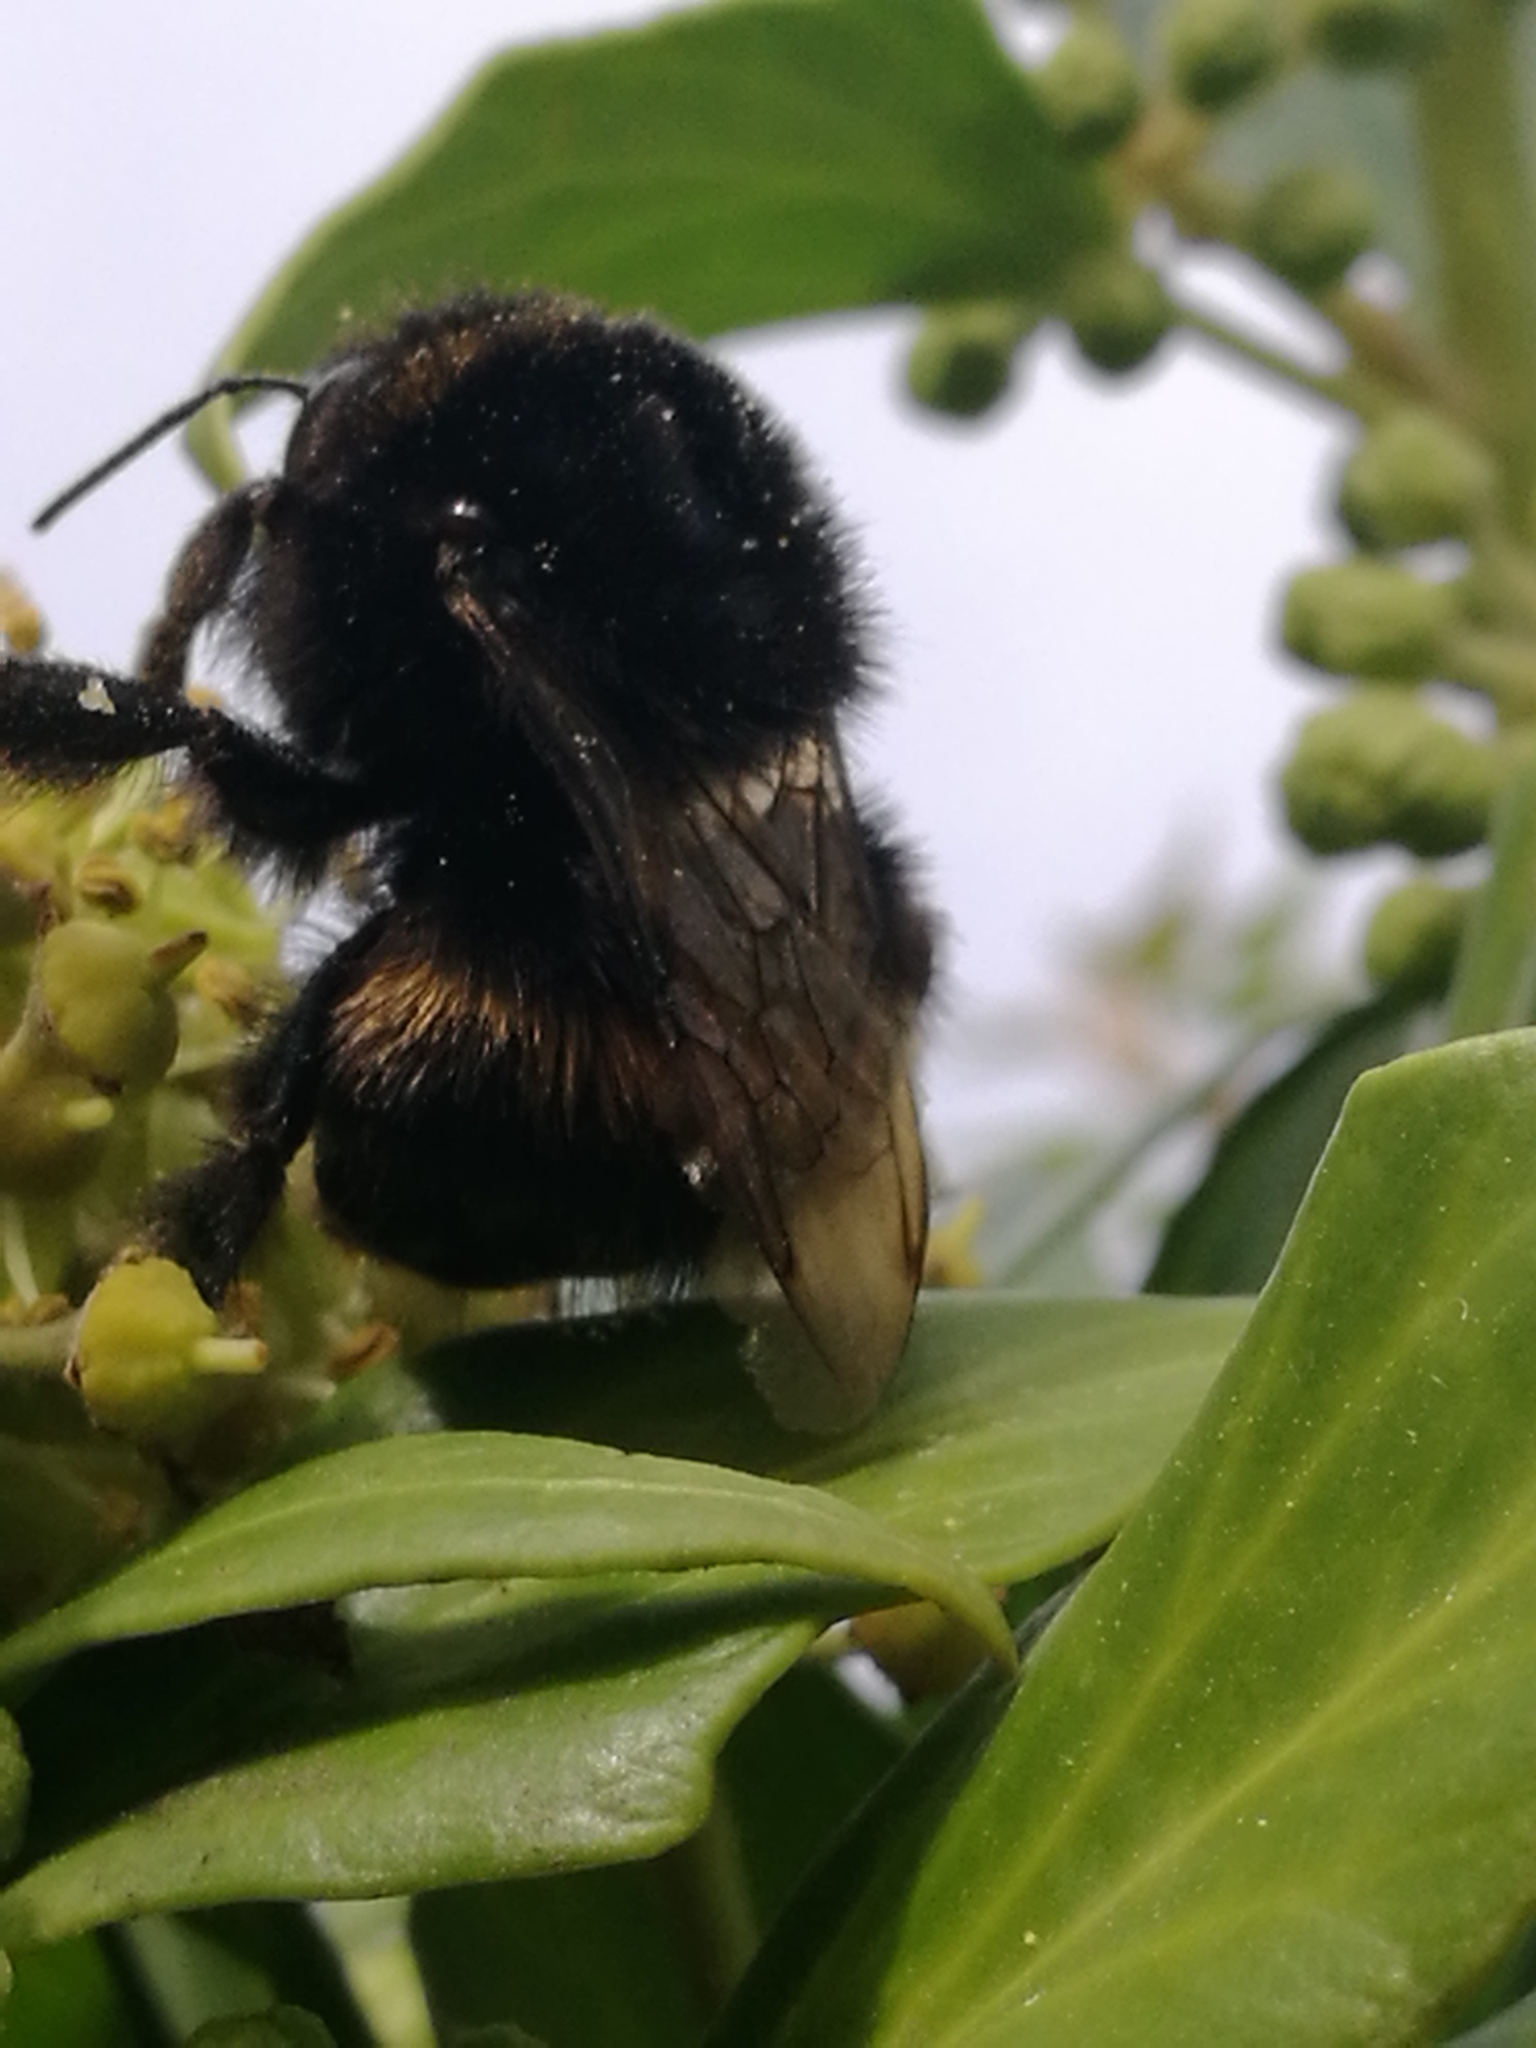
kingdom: Animalia
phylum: Arthropoda
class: Insecta
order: Hymenoptera
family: Apidae
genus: Bombus
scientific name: Bombus terrestris
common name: Buff-tailed bumblebee
